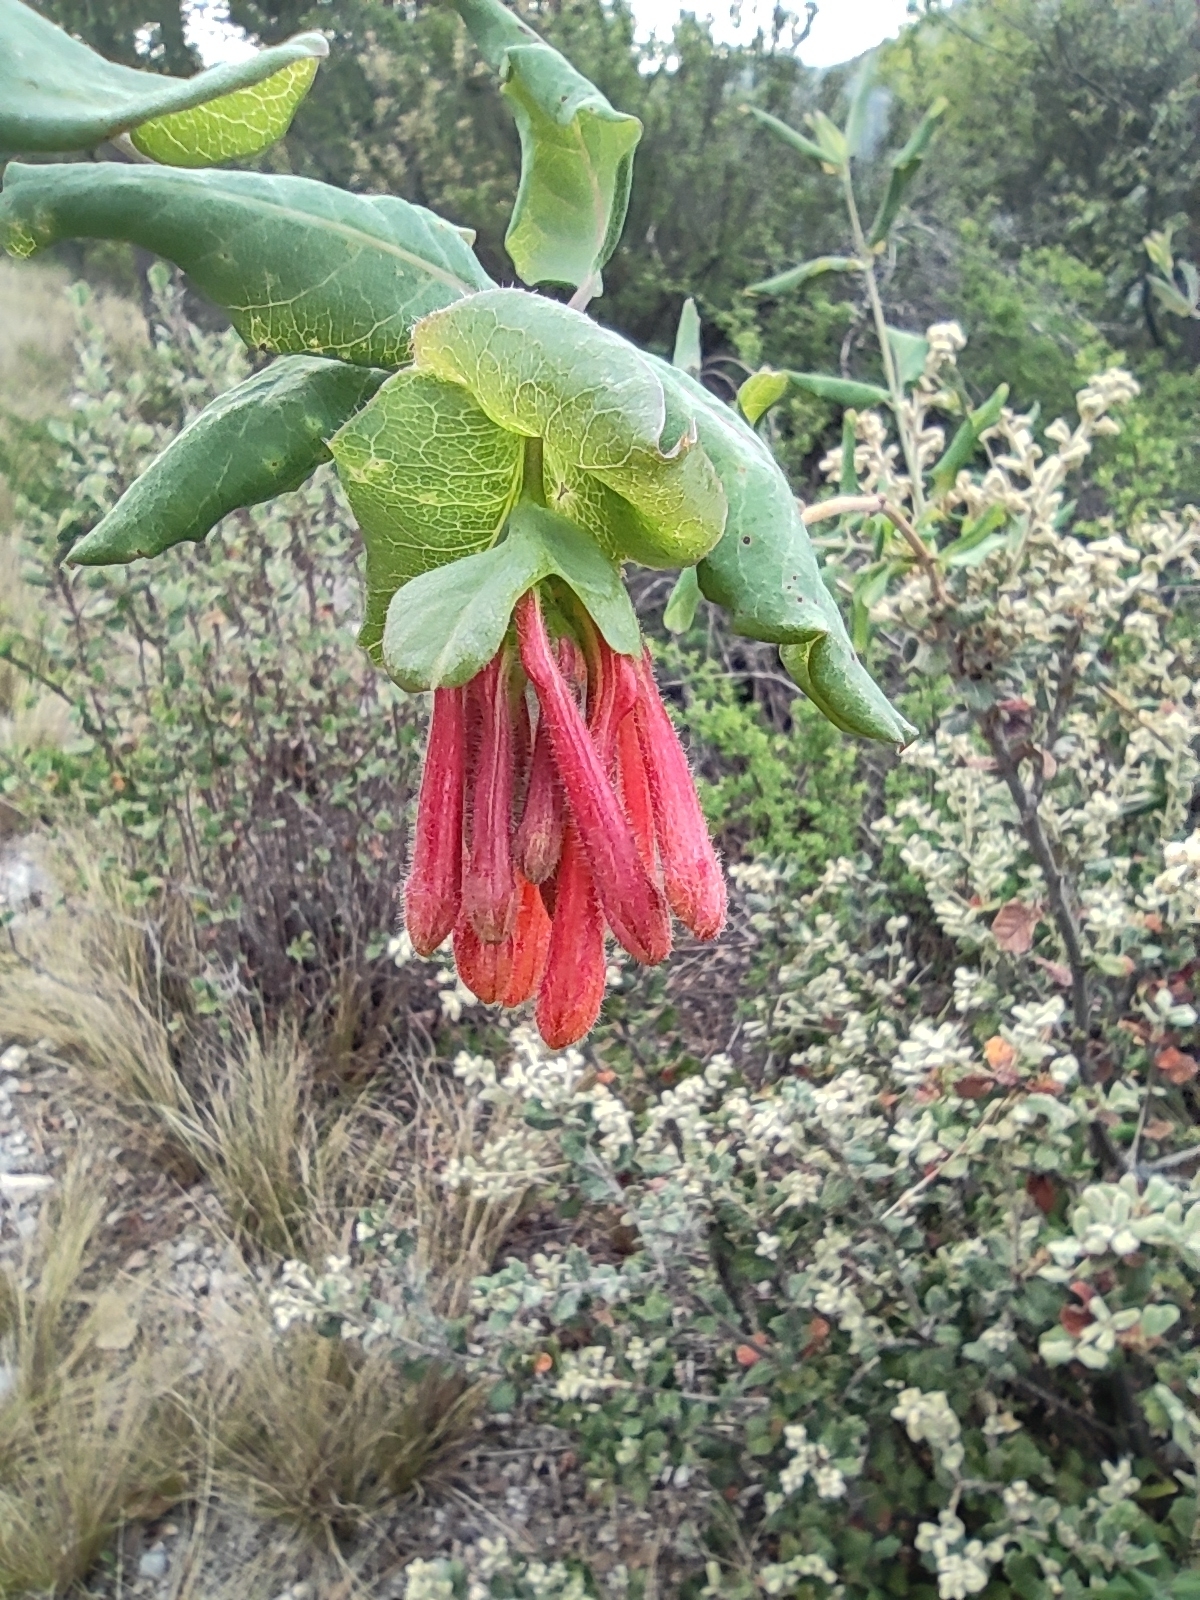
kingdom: Plantae
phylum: Tracheophyta
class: Magnoliopsida
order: Dipsacales
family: Caprifoliaceae
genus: Lonicera
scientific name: Lonicera pilosa
